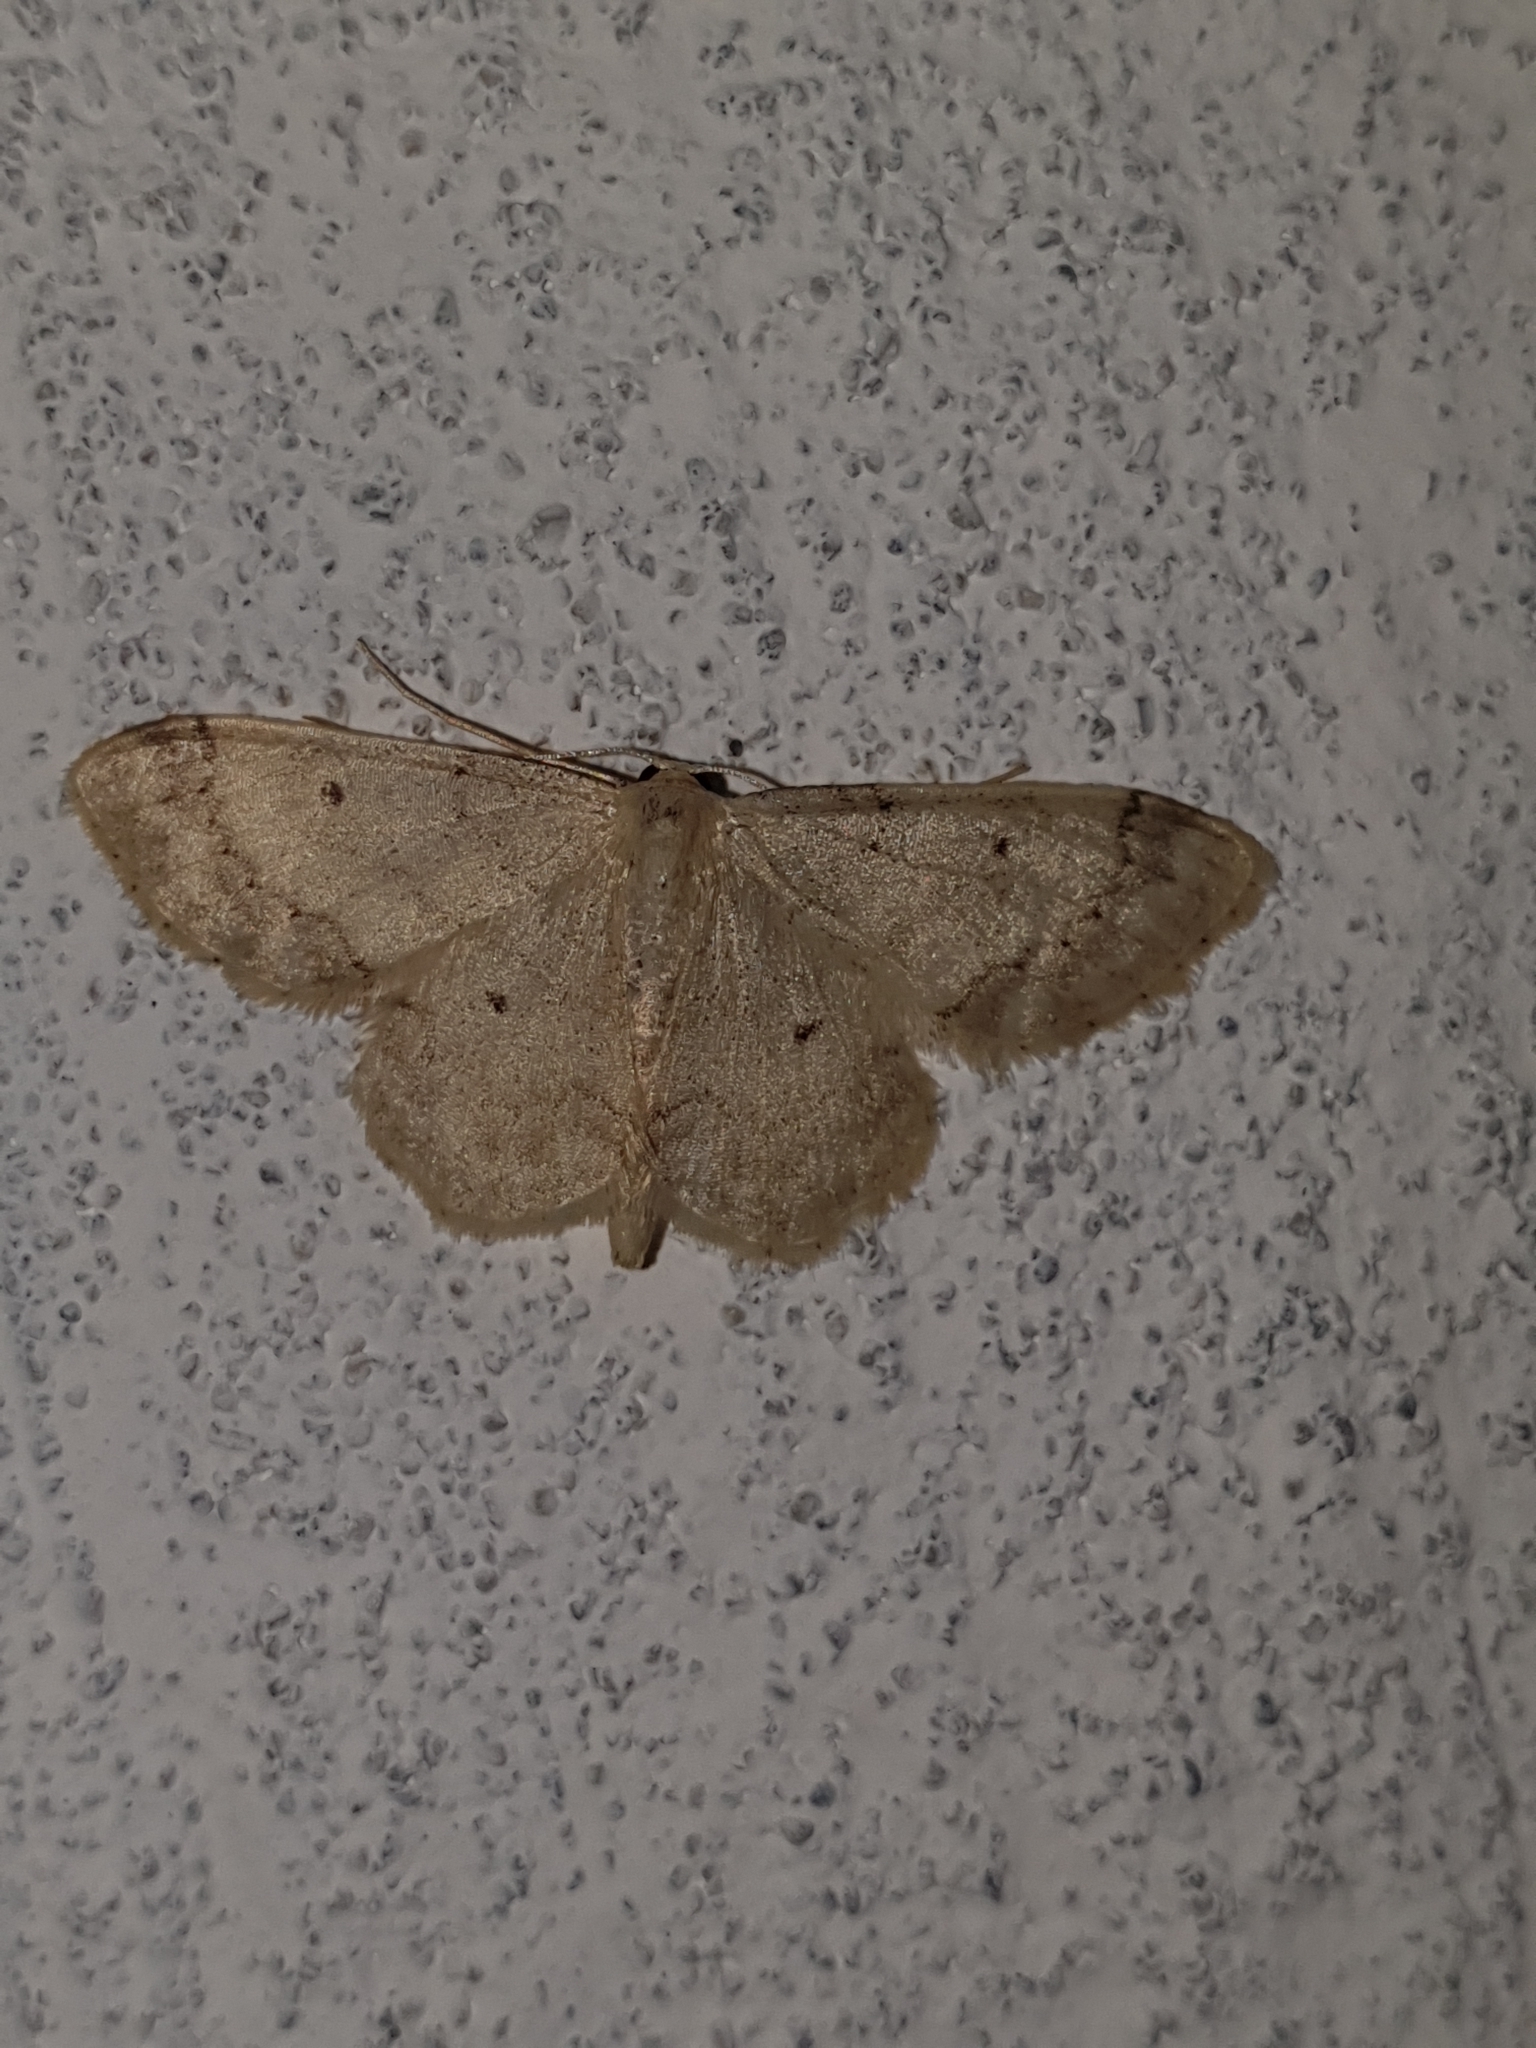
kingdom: Animalia
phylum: Arthropoda
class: Insecta
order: Lepidoptera
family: Geometridae
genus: Idaea
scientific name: Idaea biselata
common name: Small fan-footed wave
